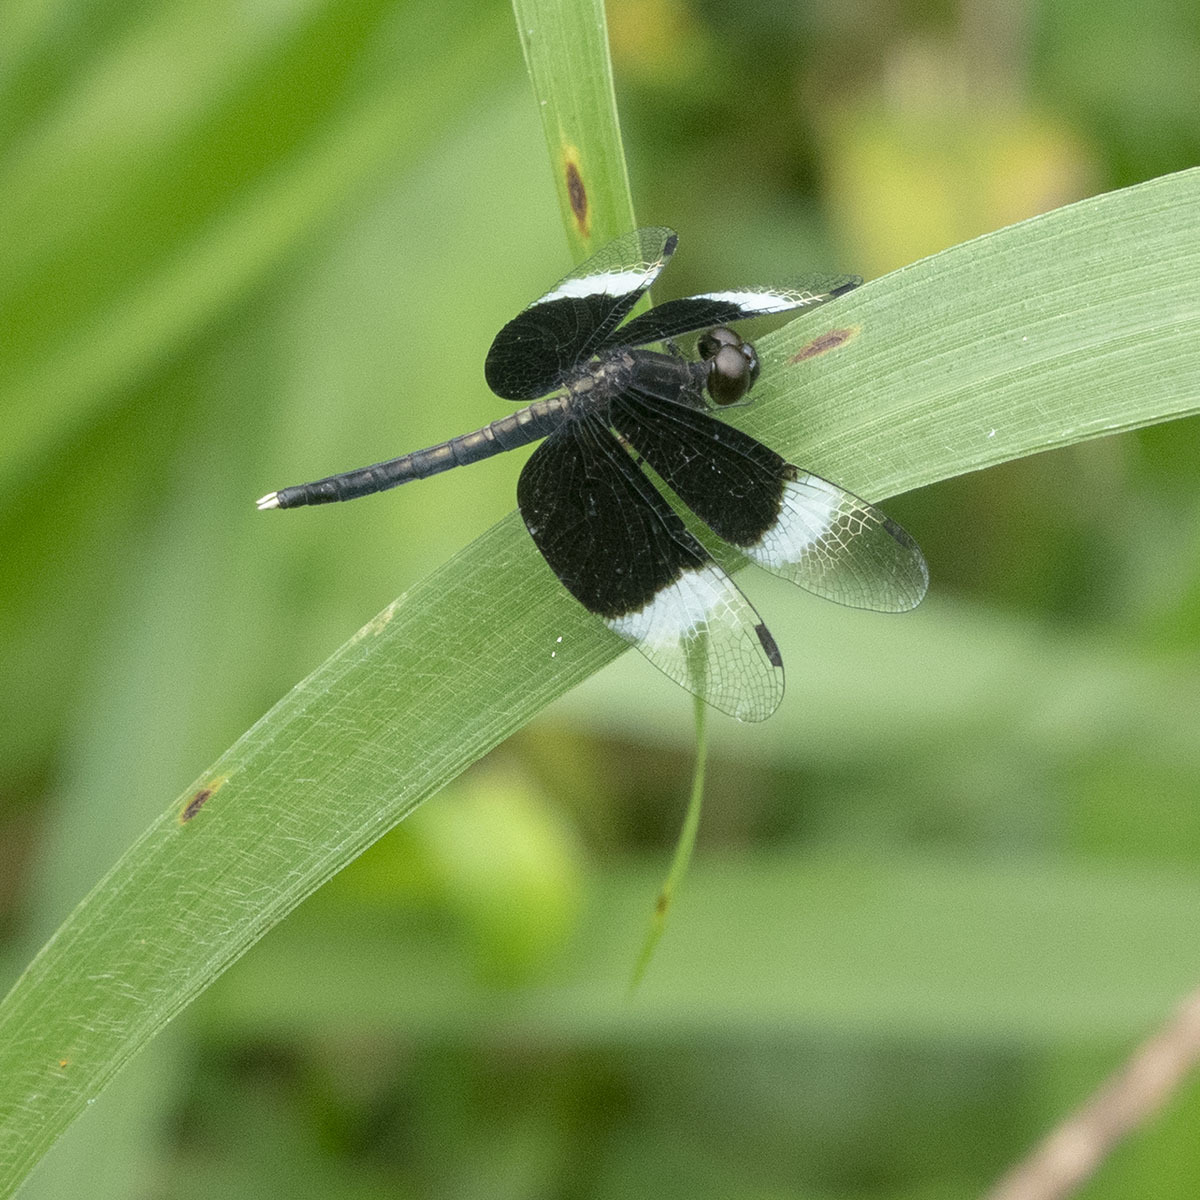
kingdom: Animalia
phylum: Arthropoda
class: Insecta
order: Odonata
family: Libellulidae
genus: Neurothemis
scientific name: Neurothemis tullia
